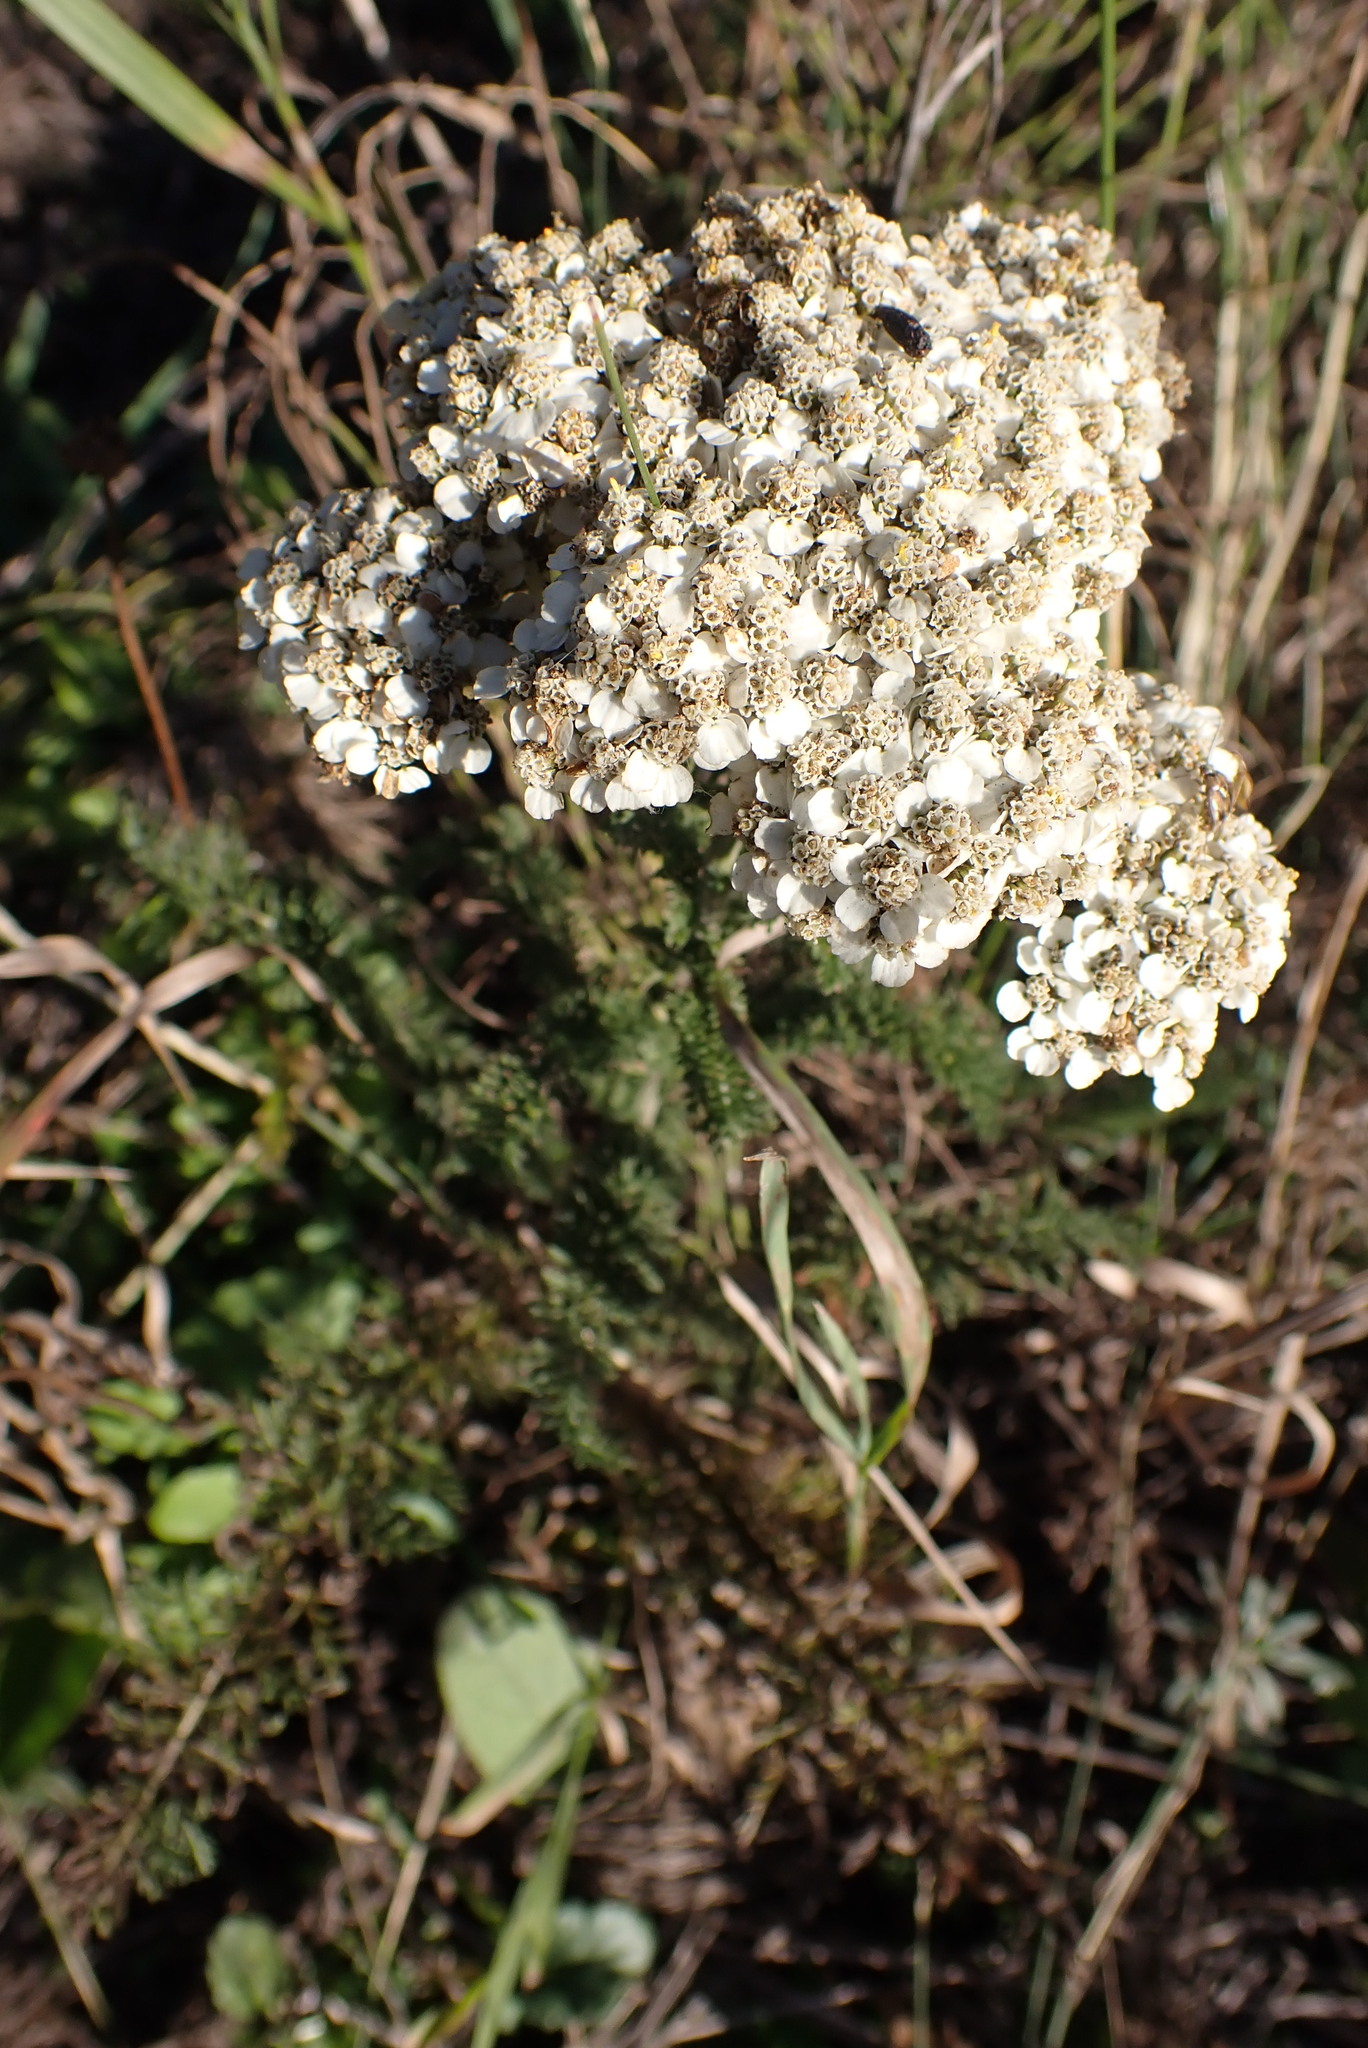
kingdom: Plantae
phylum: Tracheophyta
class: Magnoliopsida
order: Asterales
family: Asteraceae
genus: Achillea
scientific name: Achillea millefolium
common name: Yarrow
